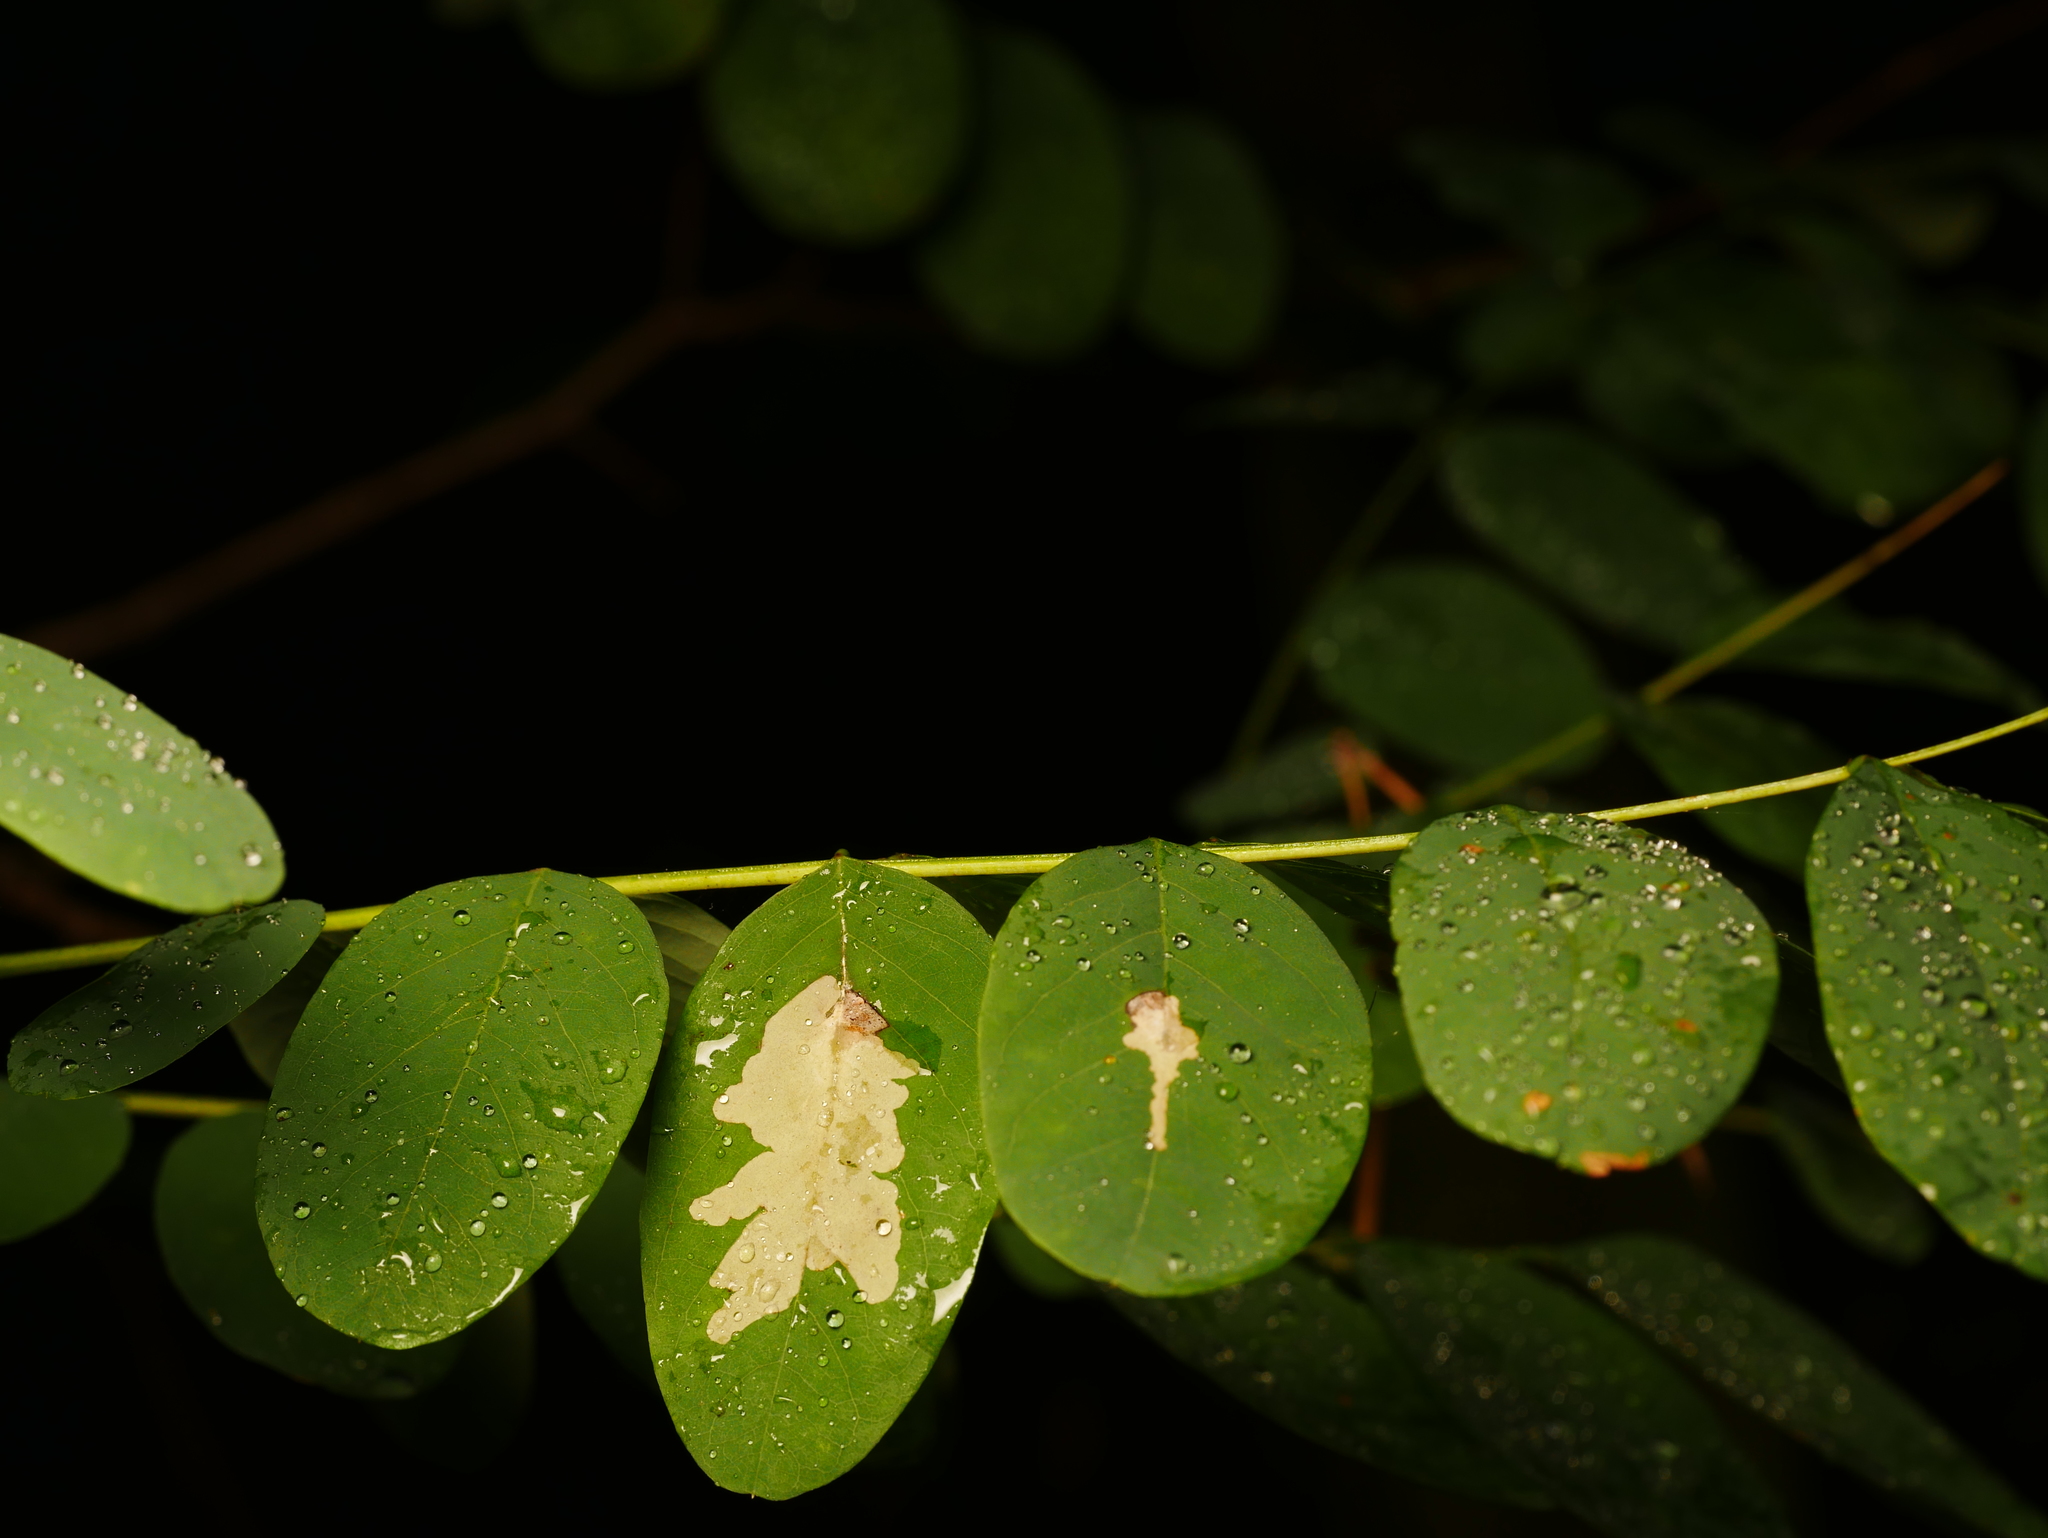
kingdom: Plantae
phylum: Tracheophyta
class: Magnoliopsida
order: Fabales
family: Fabaceae
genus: Robinia
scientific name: Robinia pseudoacacia
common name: Black locust
